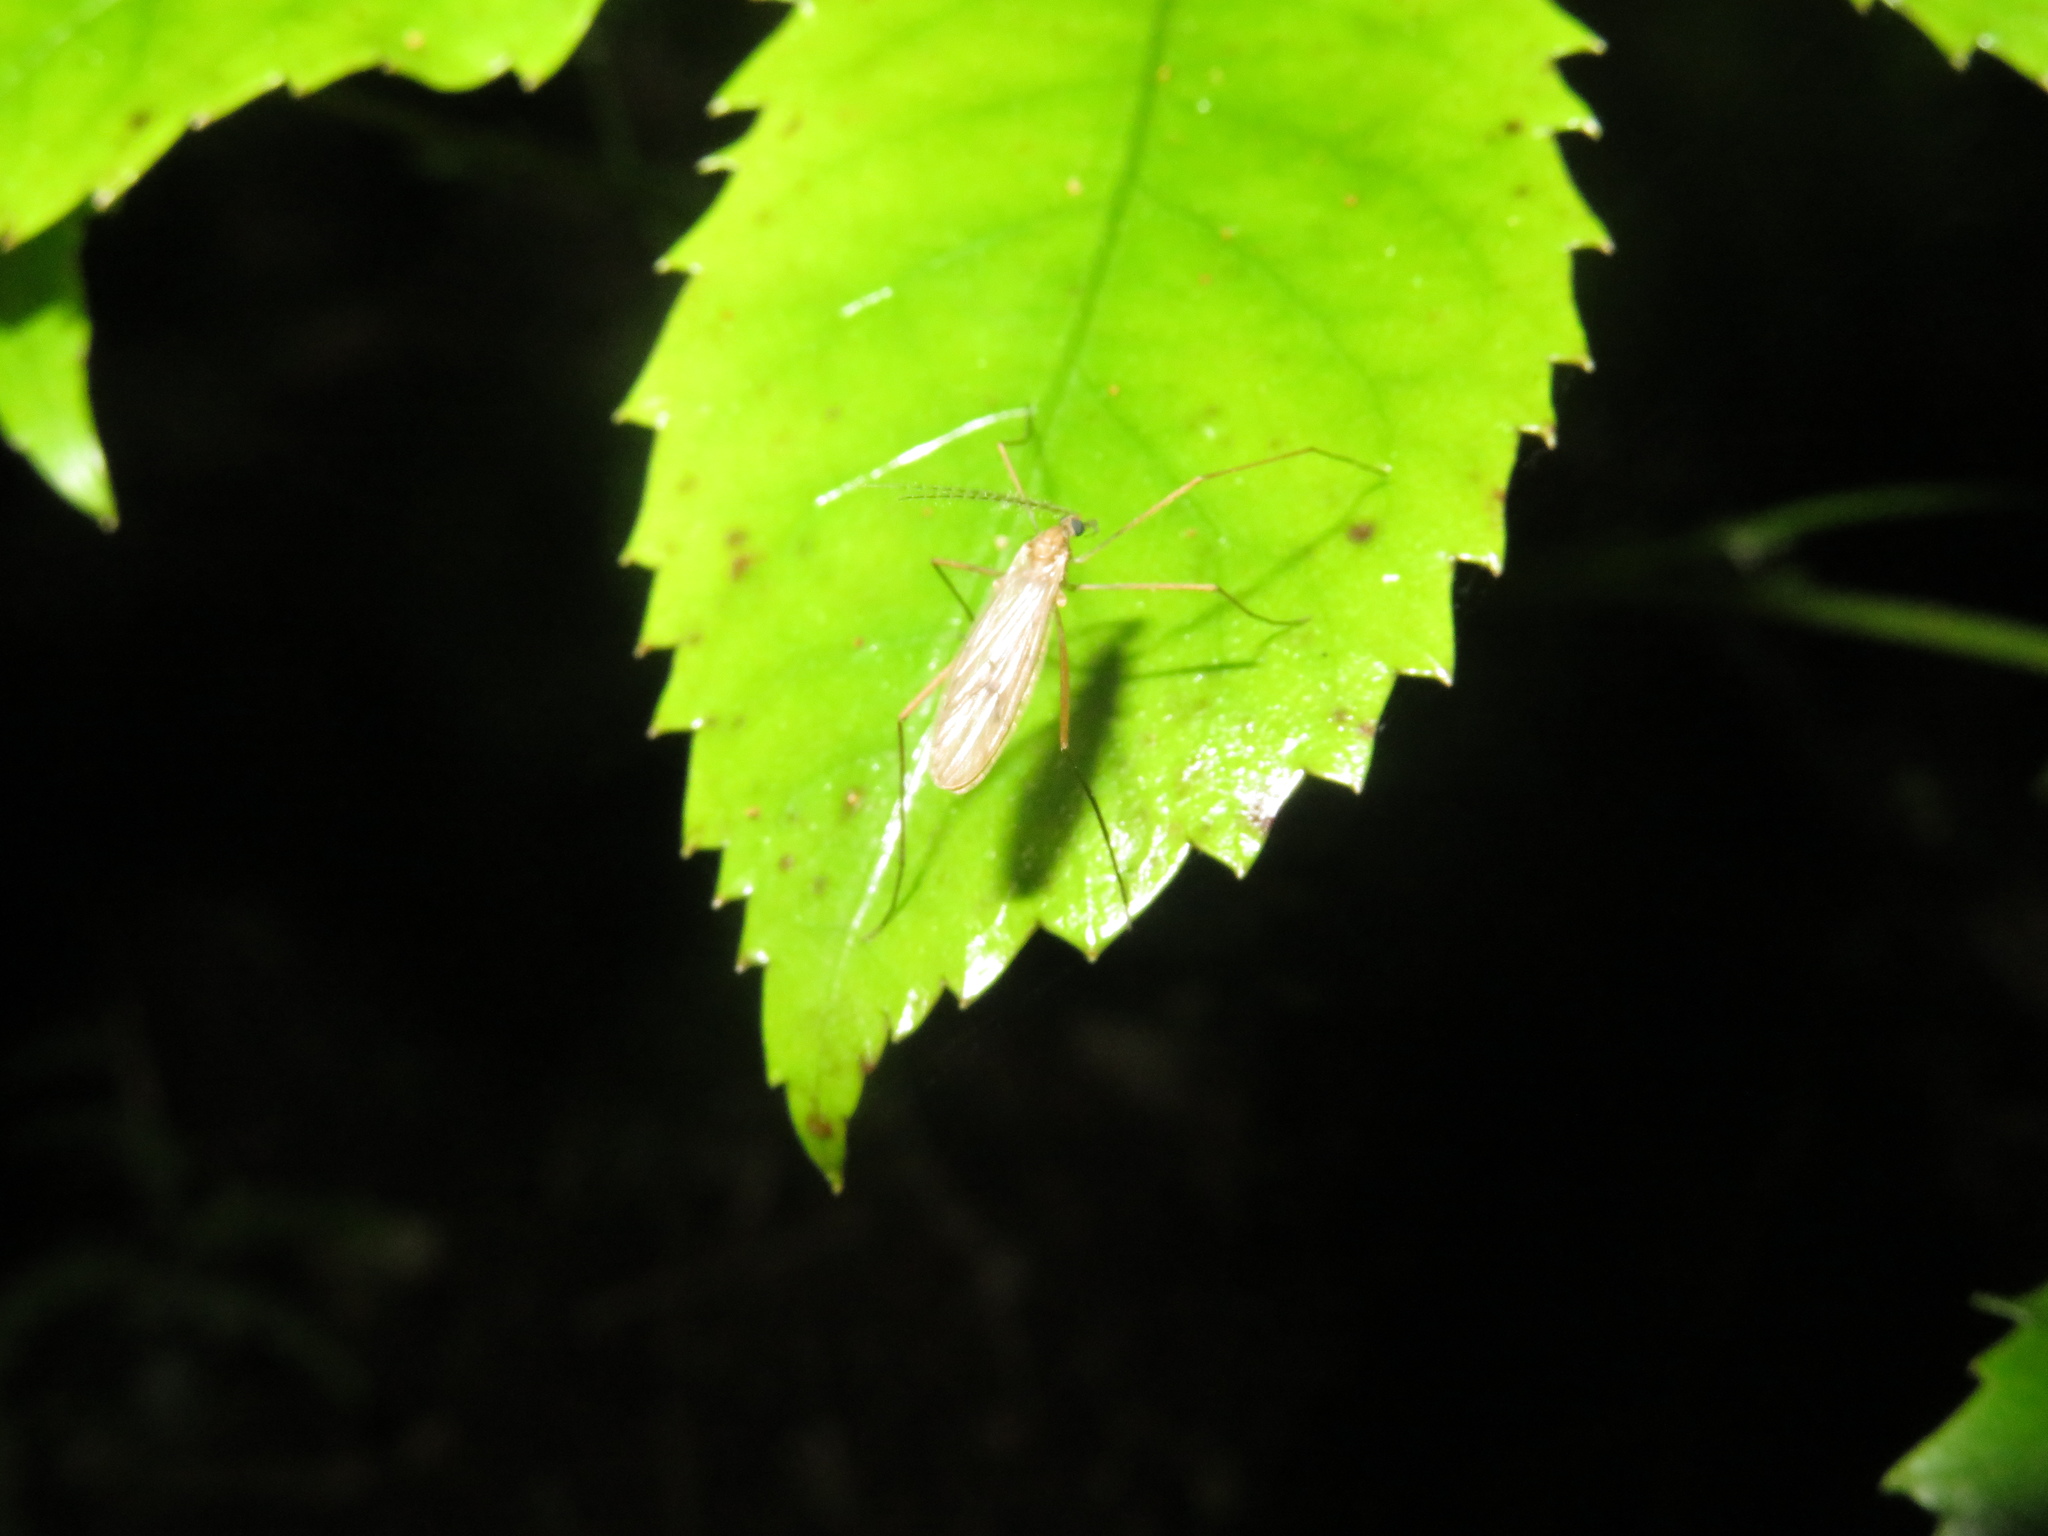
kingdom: Animalia
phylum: Arthropoda
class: Insecta
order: Diptera
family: Limoniidae
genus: Amphineurus
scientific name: Amphineurus insulsus
